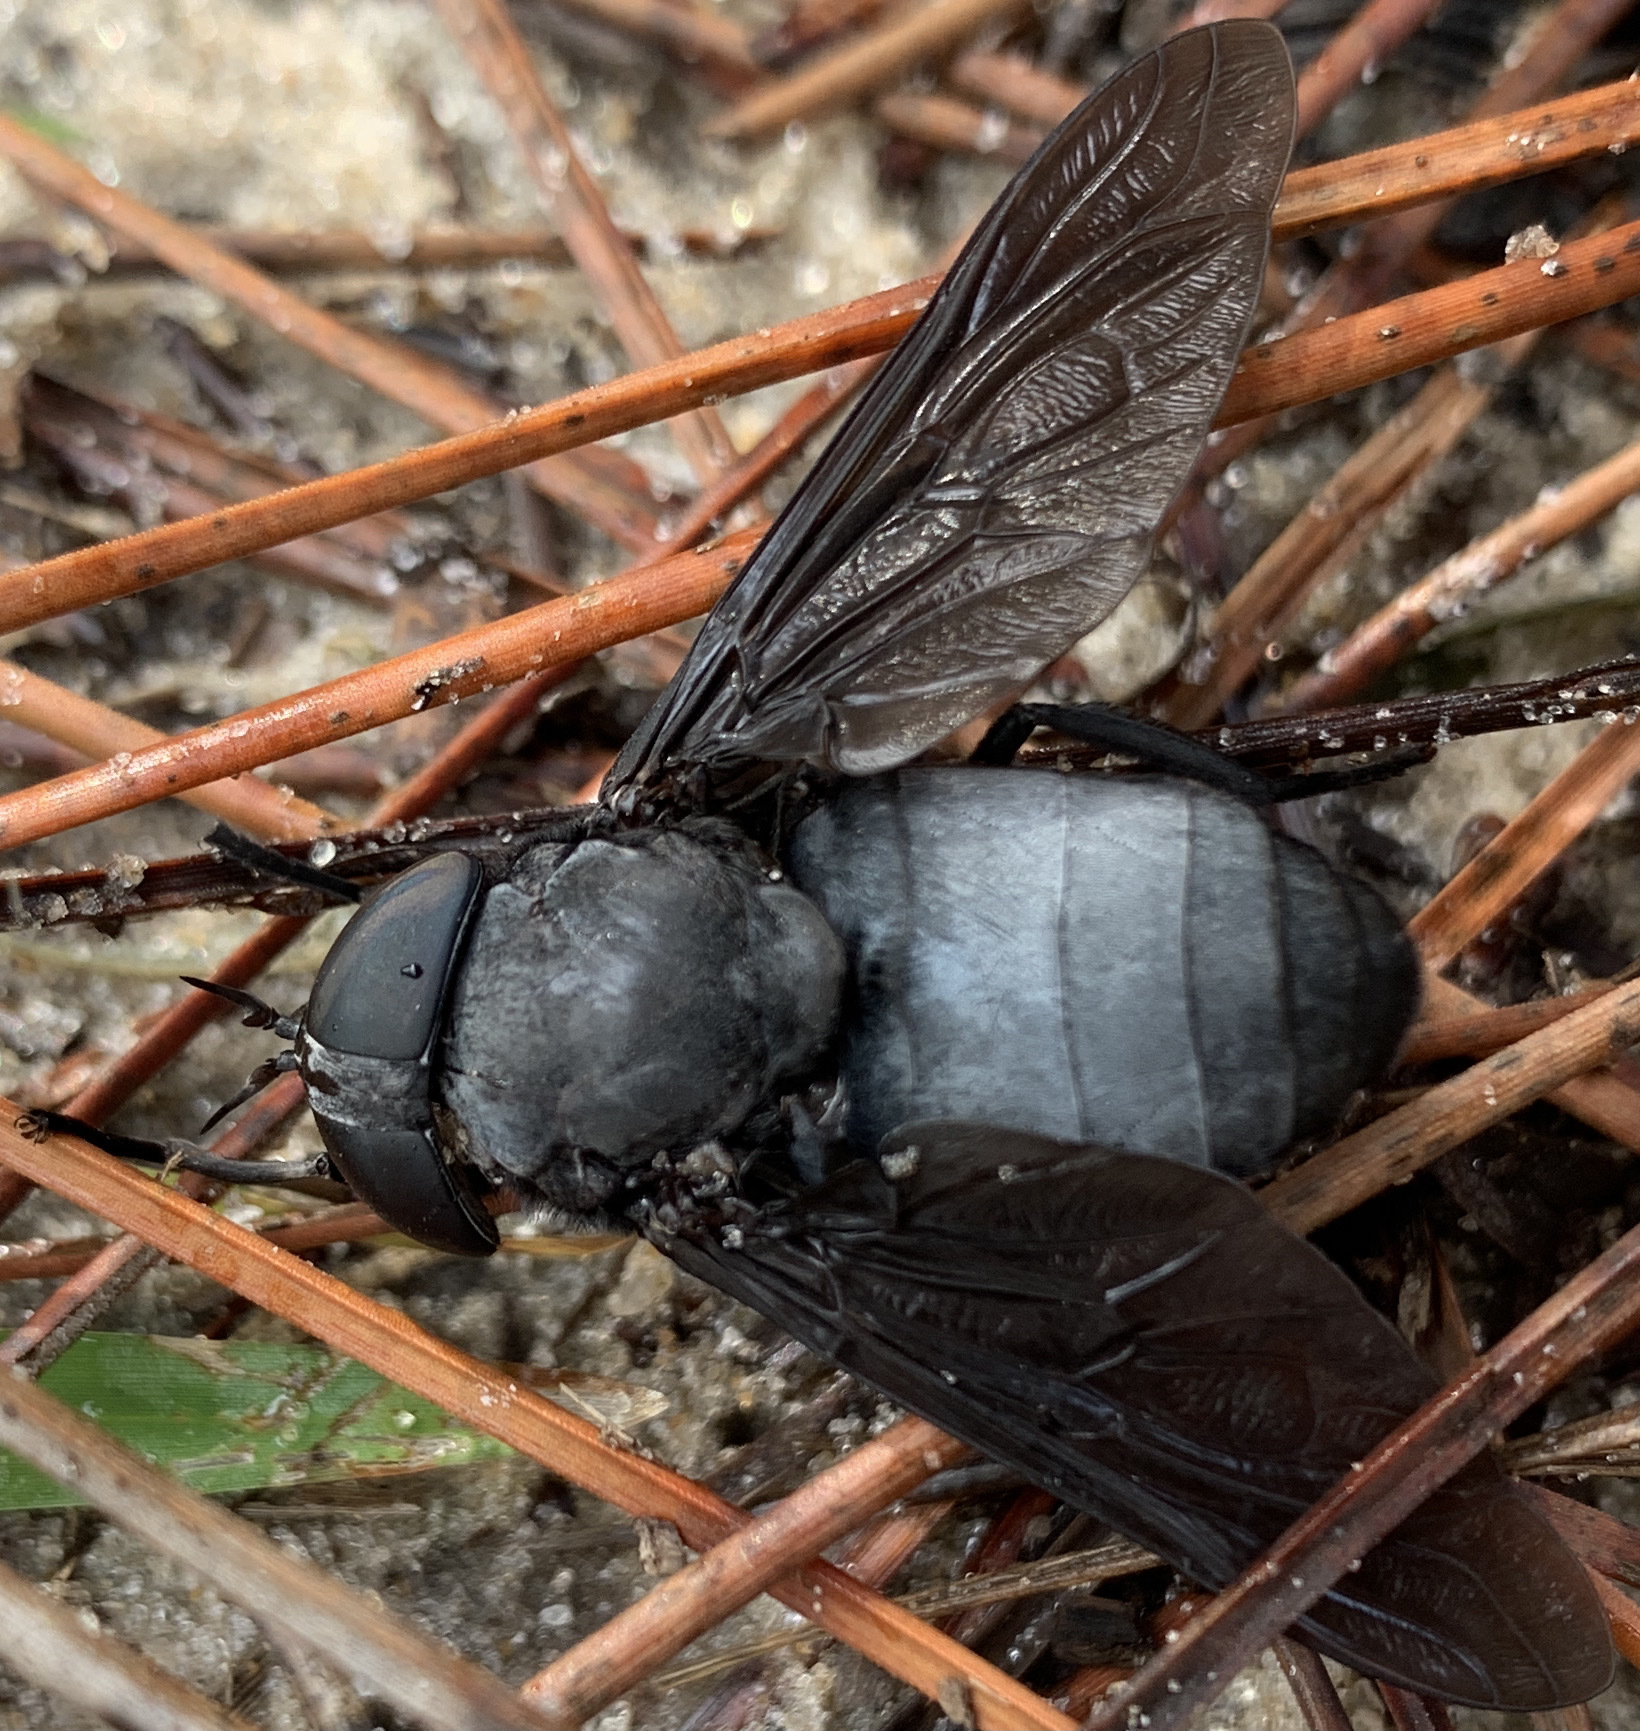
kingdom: Animalia
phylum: Arthropoda
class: Insecta
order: Diptera
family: Tabanidae
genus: Tabanus
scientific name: Tabanus atratus
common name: Black horse fly
